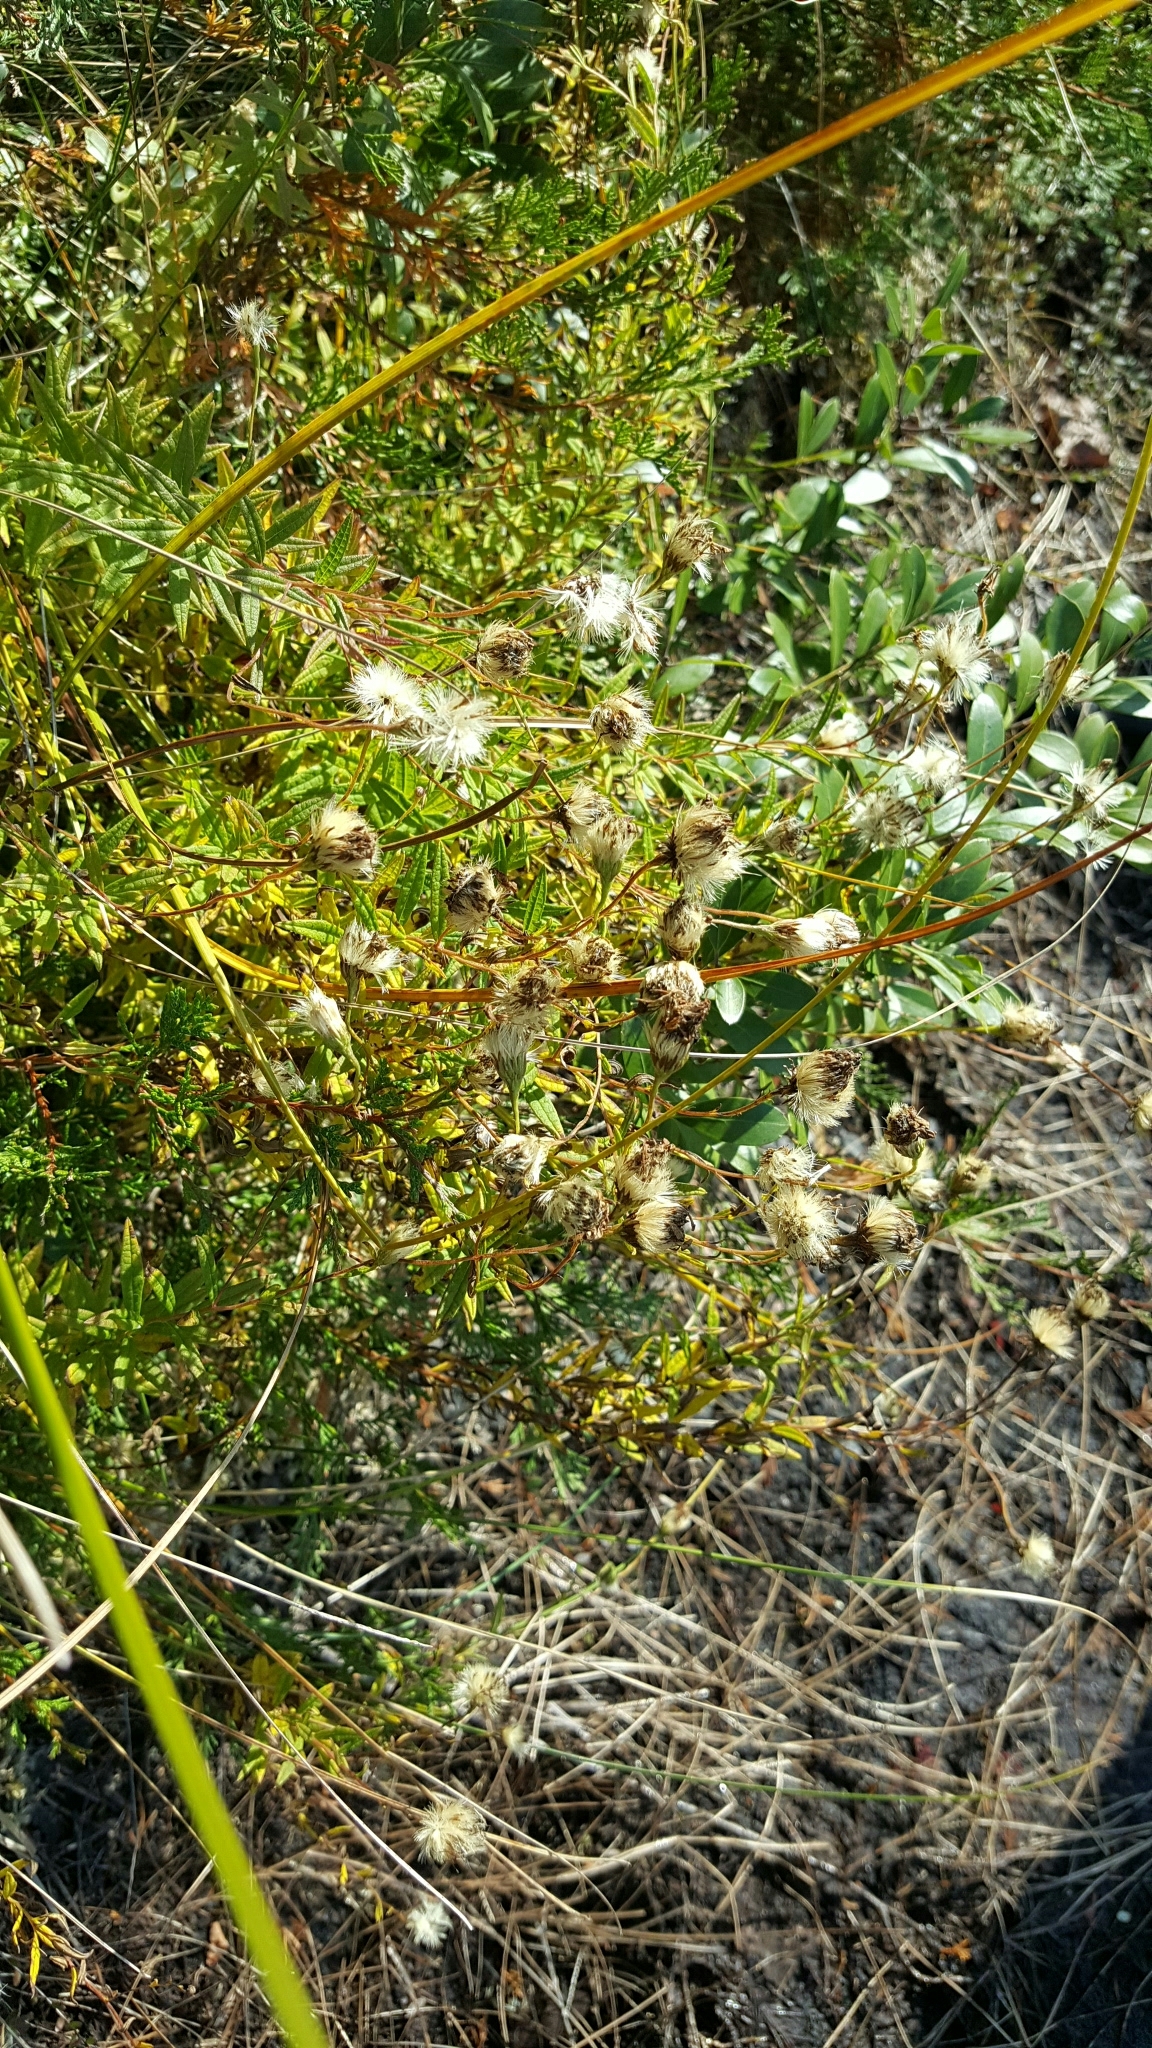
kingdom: Plantae
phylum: Tracheophyta
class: Magnoliopsida
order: Asterales
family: Asteraceae
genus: Oclemena
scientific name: Oclemena nemoralis
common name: Bog aster
